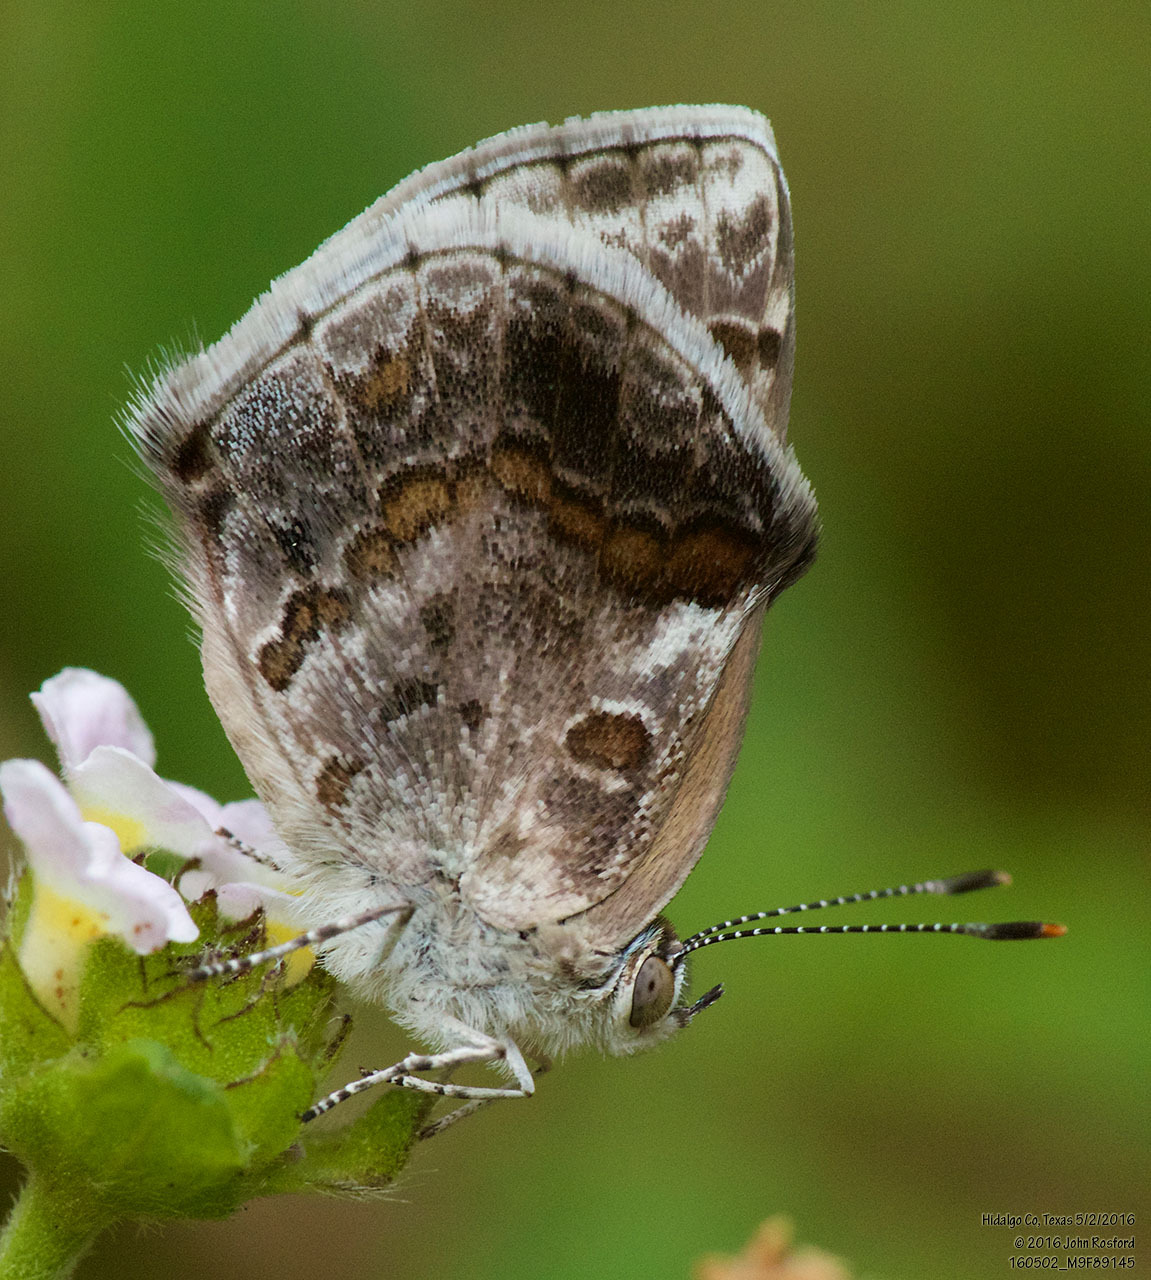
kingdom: Animalia
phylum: Arthropoda
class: Insecta
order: Lepidoptera
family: Lycaenidae
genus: Strymon
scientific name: Strymon bazochii
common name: Lantana scrub-hairstreak
